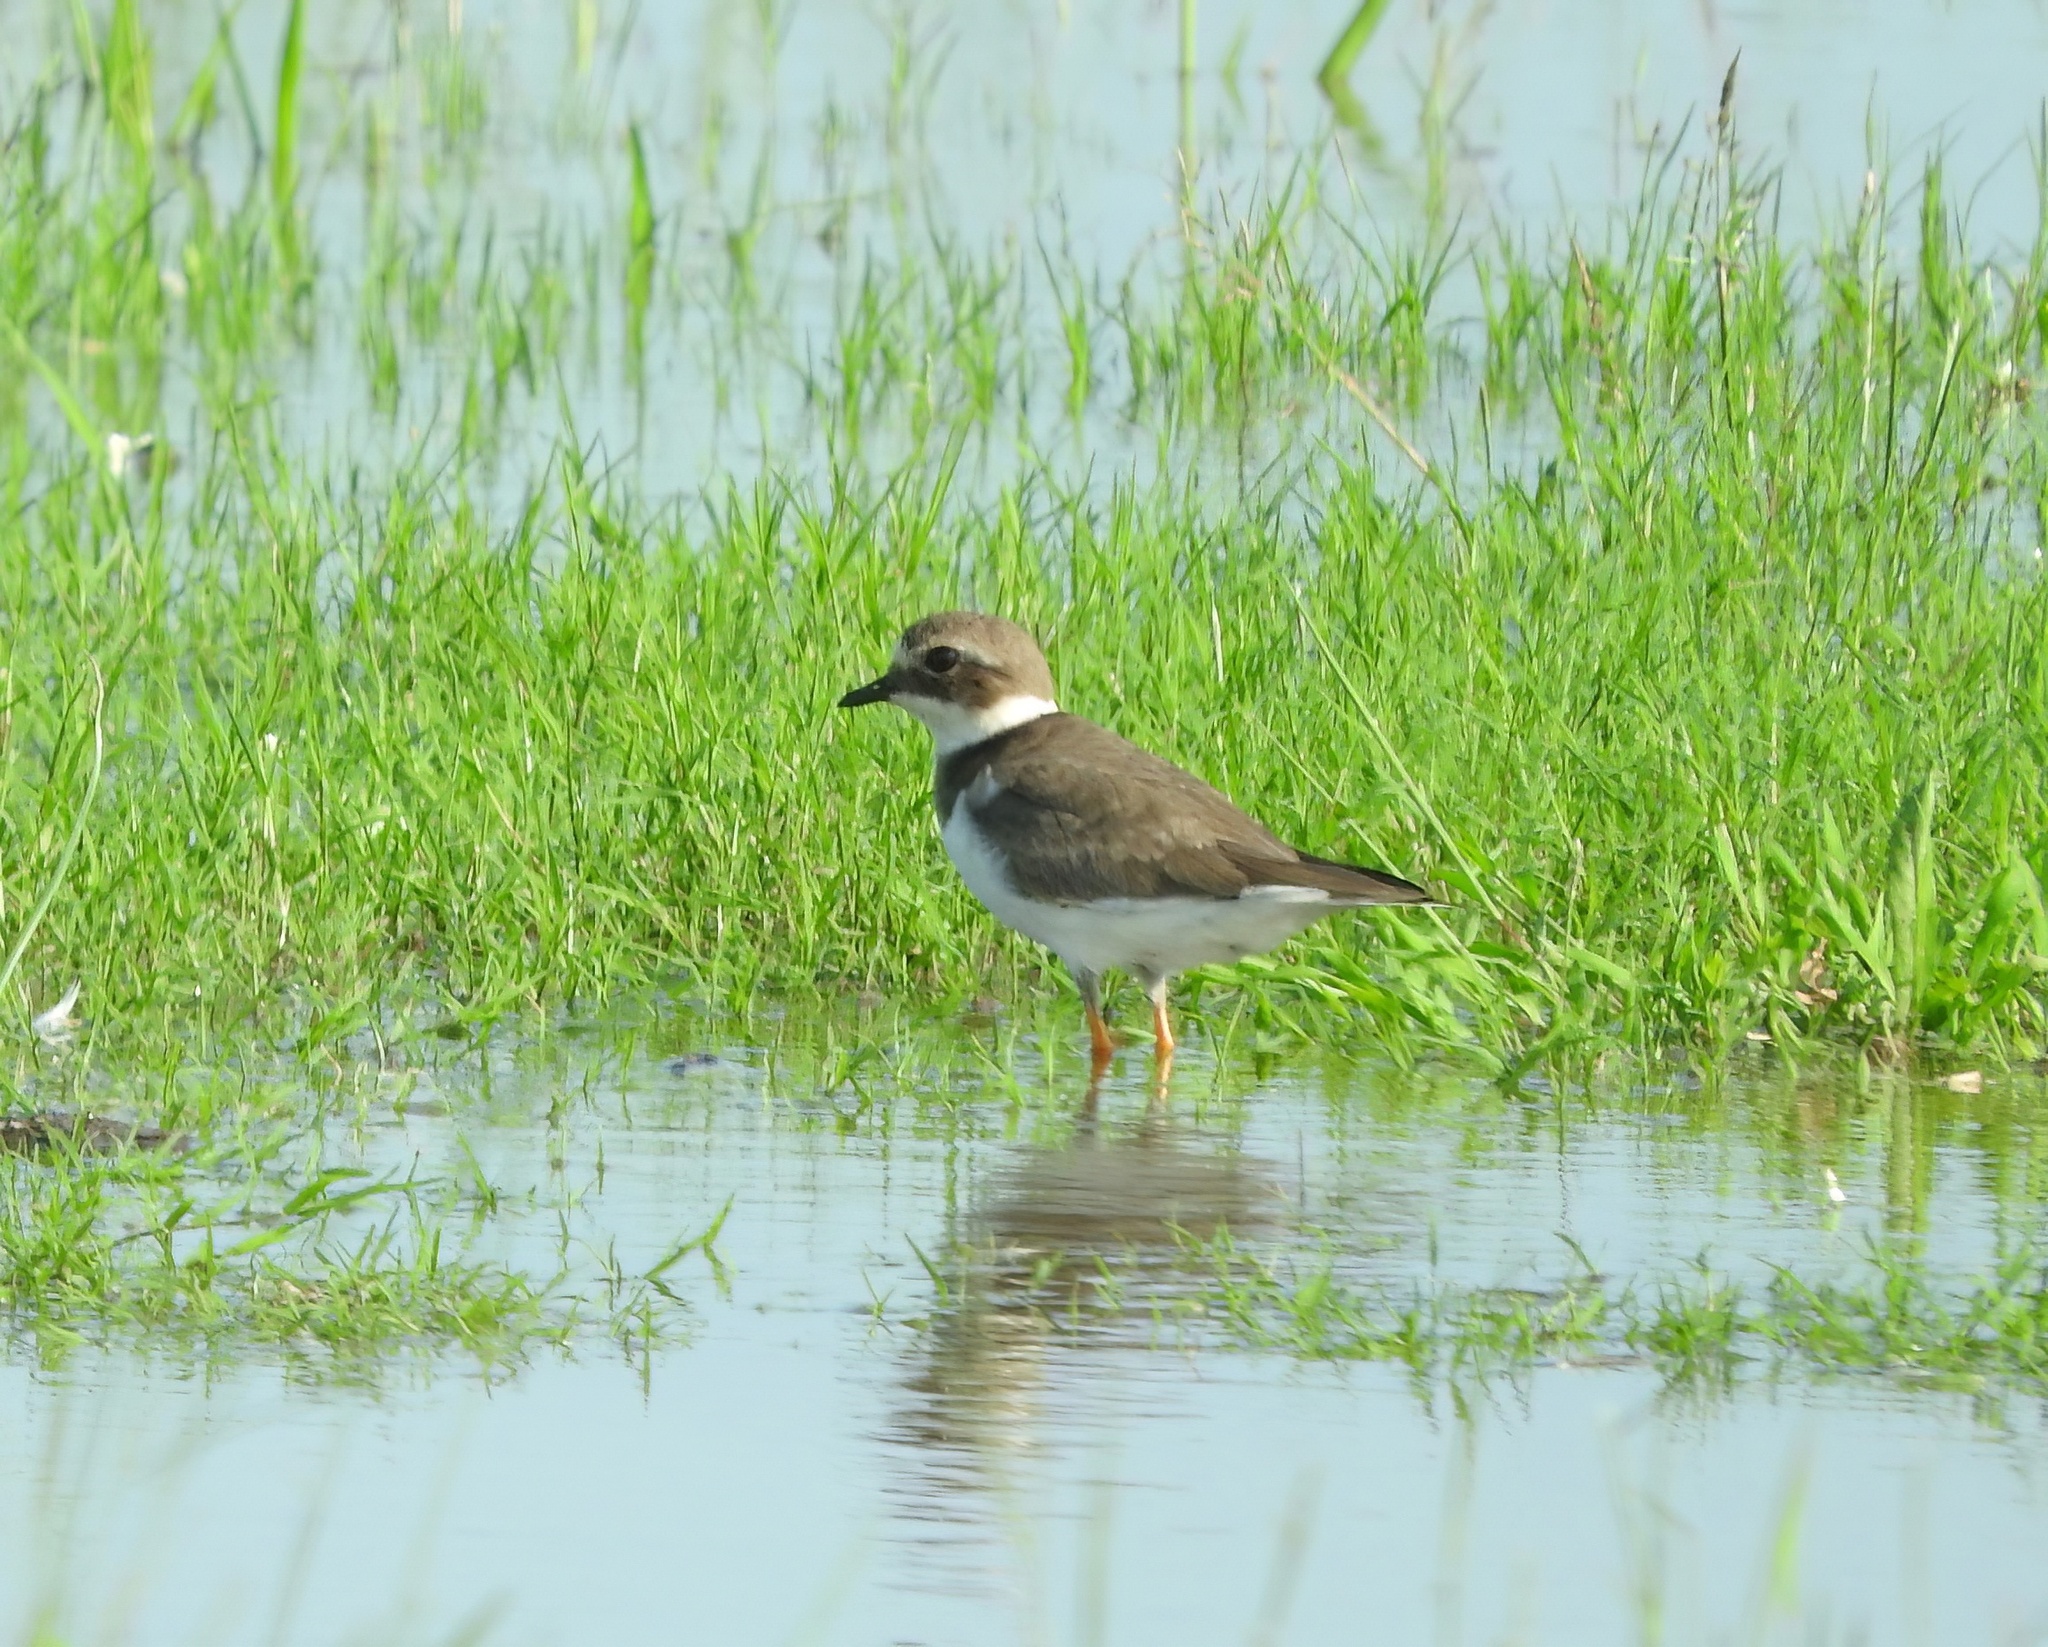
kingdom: Animalia
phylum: Chordata
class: Aves
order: Charadriiformes
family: Charadriidae
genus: Charadrius
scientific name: Charadrius hiaticula
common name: Common ringed plover
